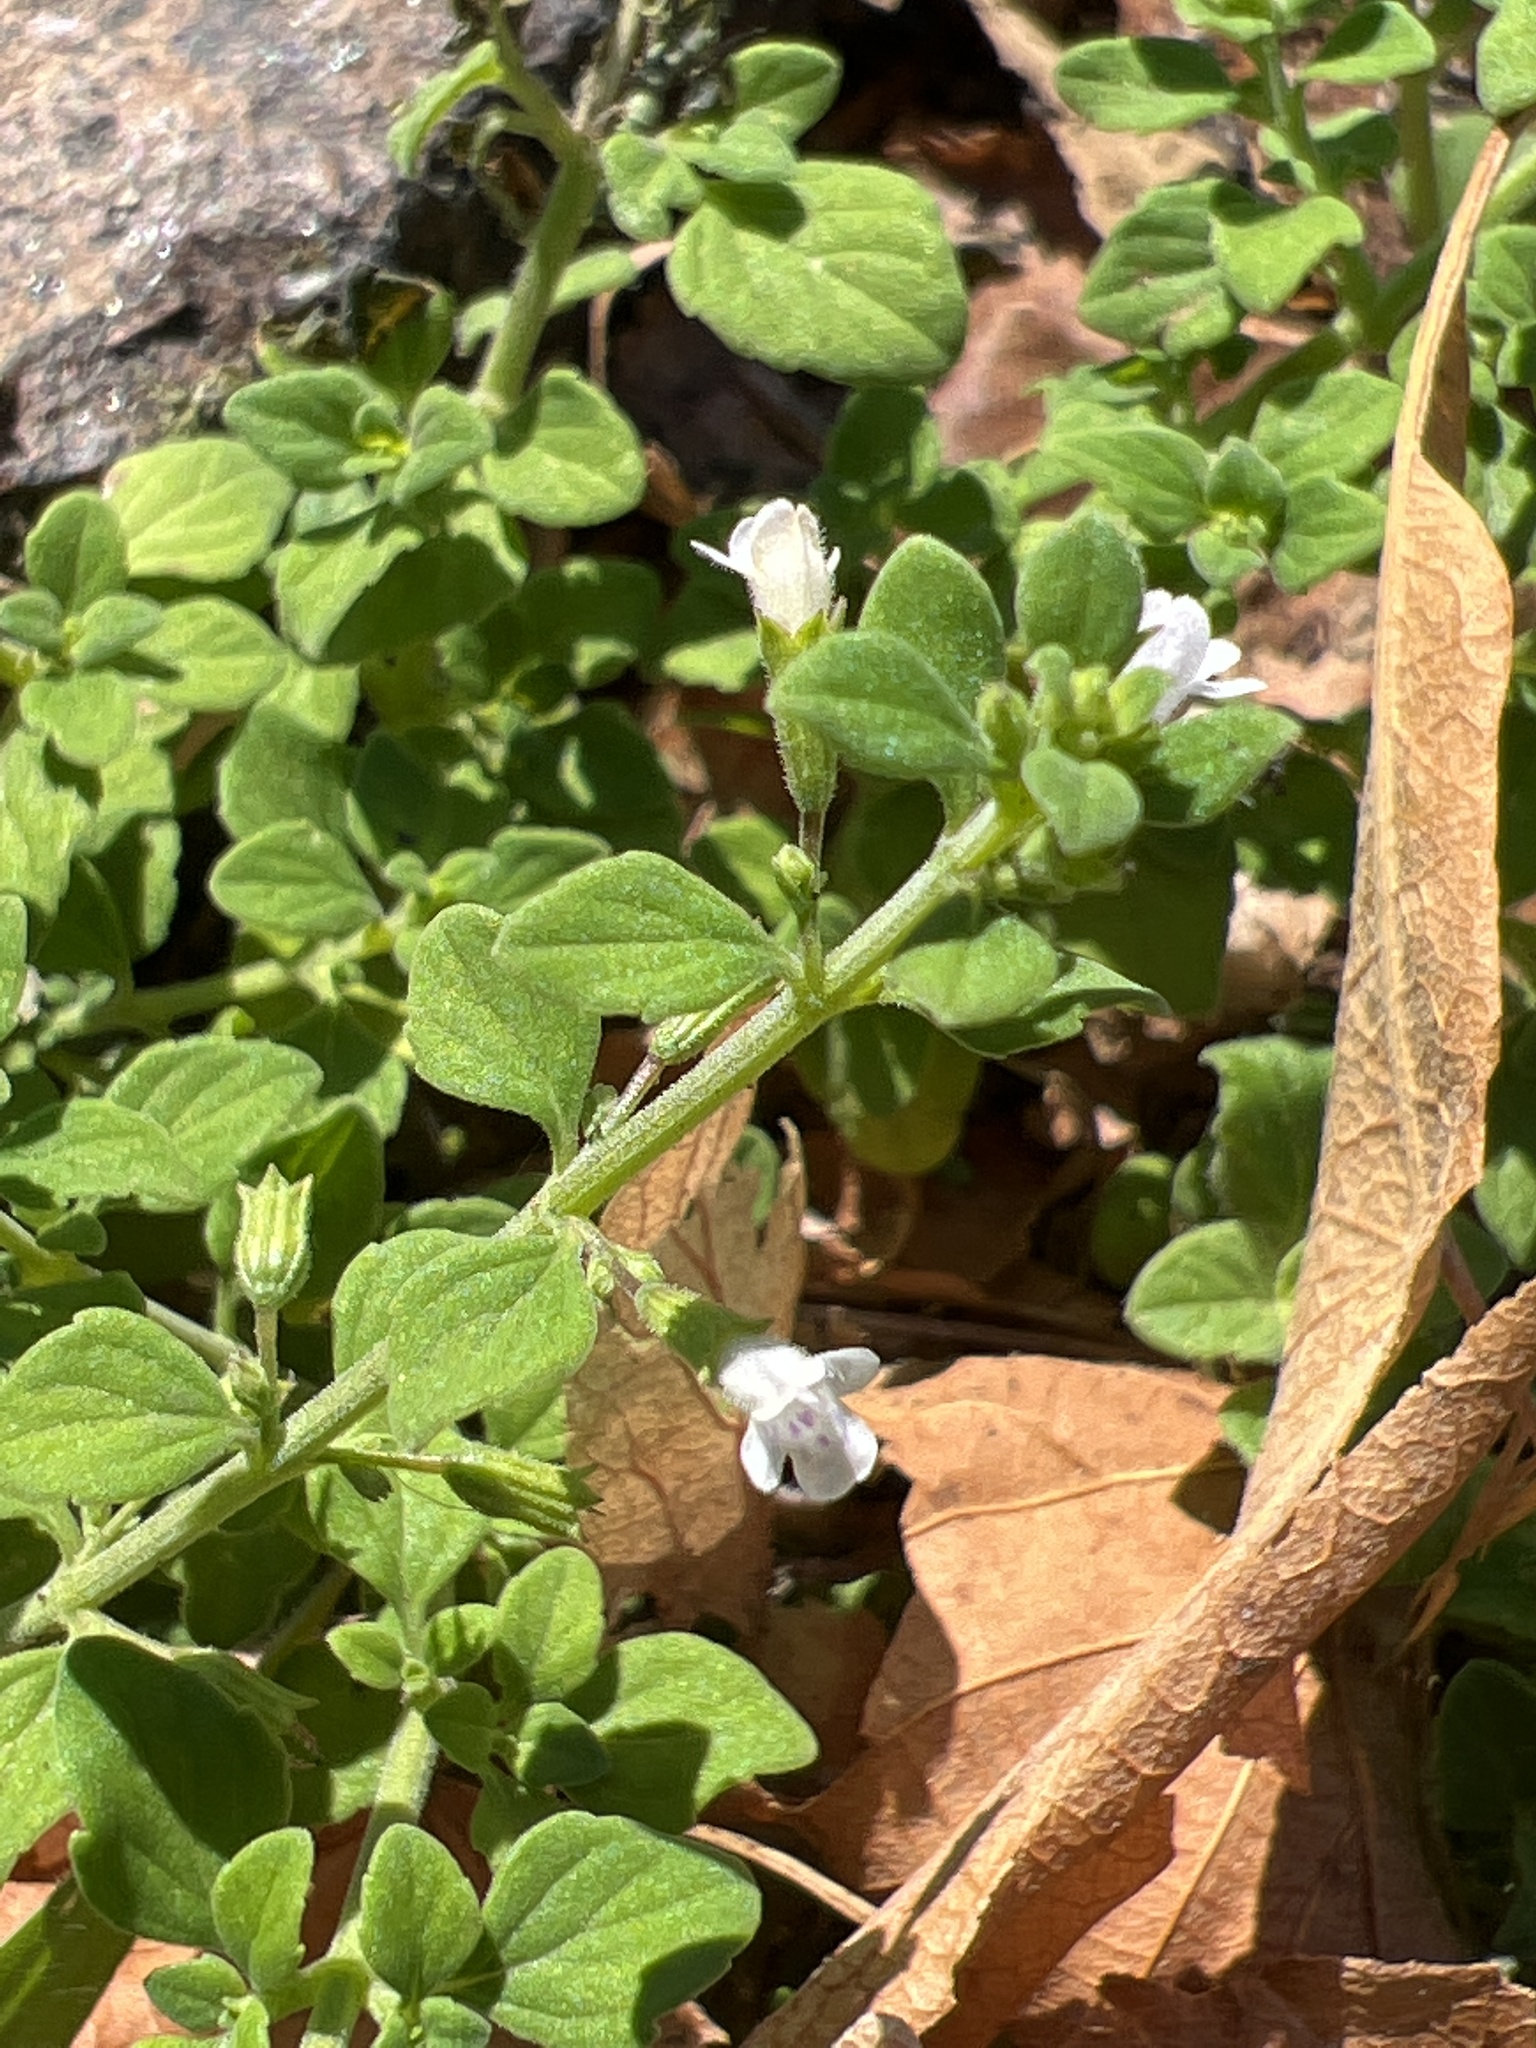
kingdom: Plantae
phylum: Tracheophyta
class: Magnoliopsida
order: Lamiales
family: Lamiaceae
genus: Clinopodium
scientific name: Clinopodium nepeta
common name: Lesser calamint
